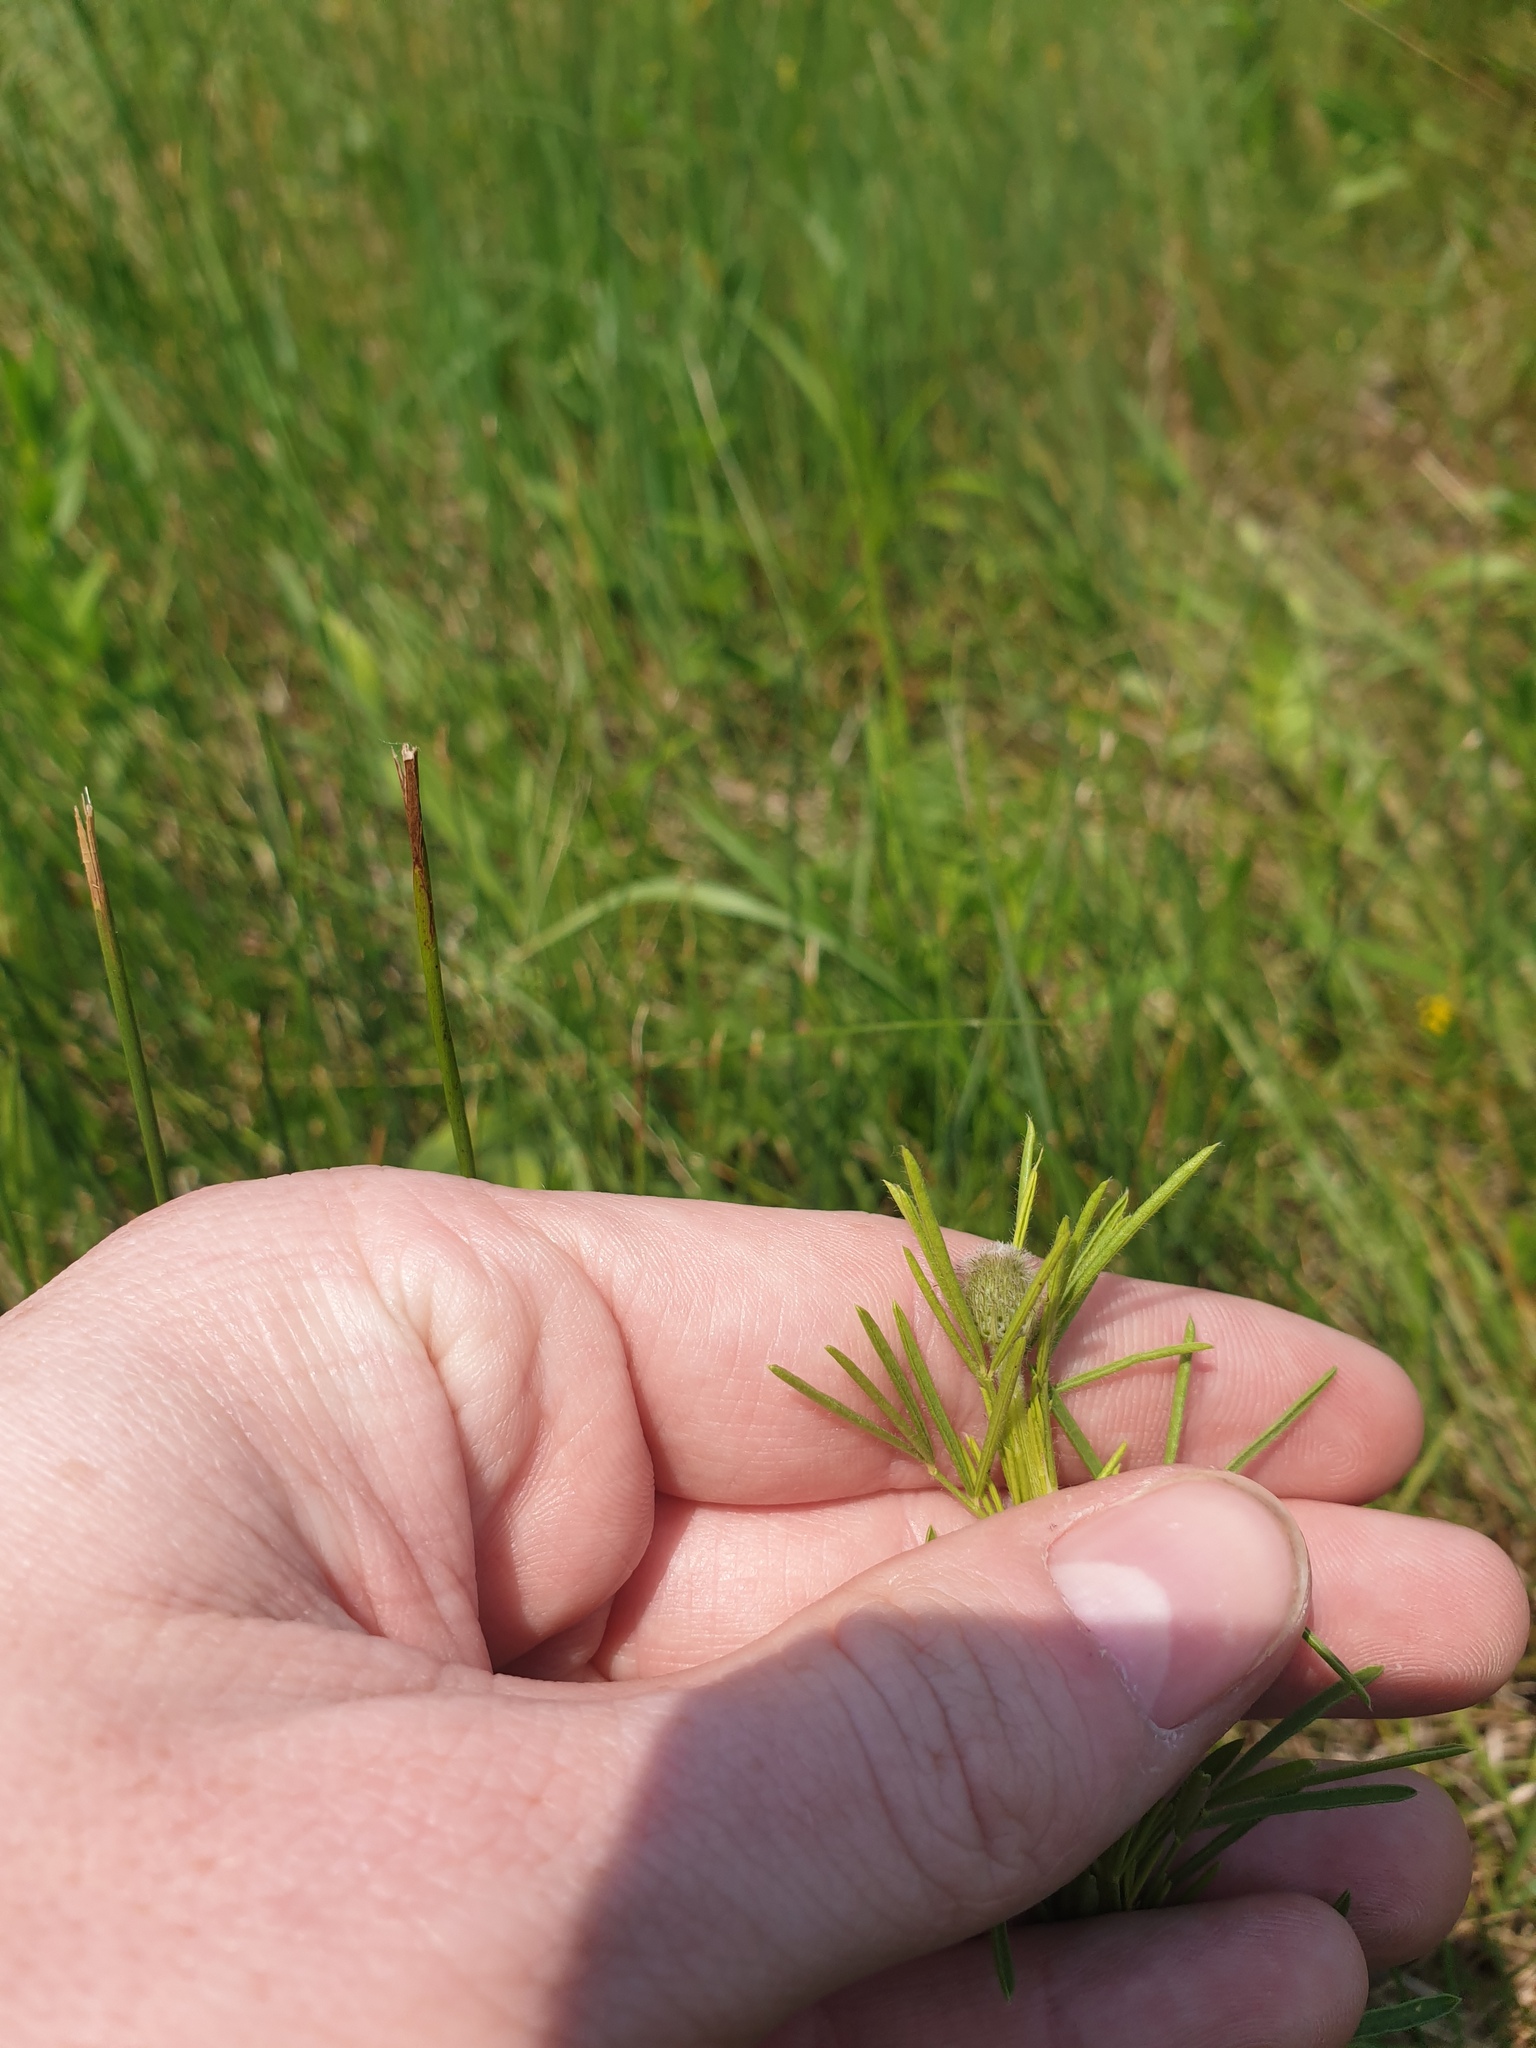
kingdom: Plantae
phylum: Tracheophyta
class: Magnoliopsida
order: Fabales
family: Fabaceae
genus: Dalea
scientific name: Dalea purpurea
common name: Purple prairie-clover
